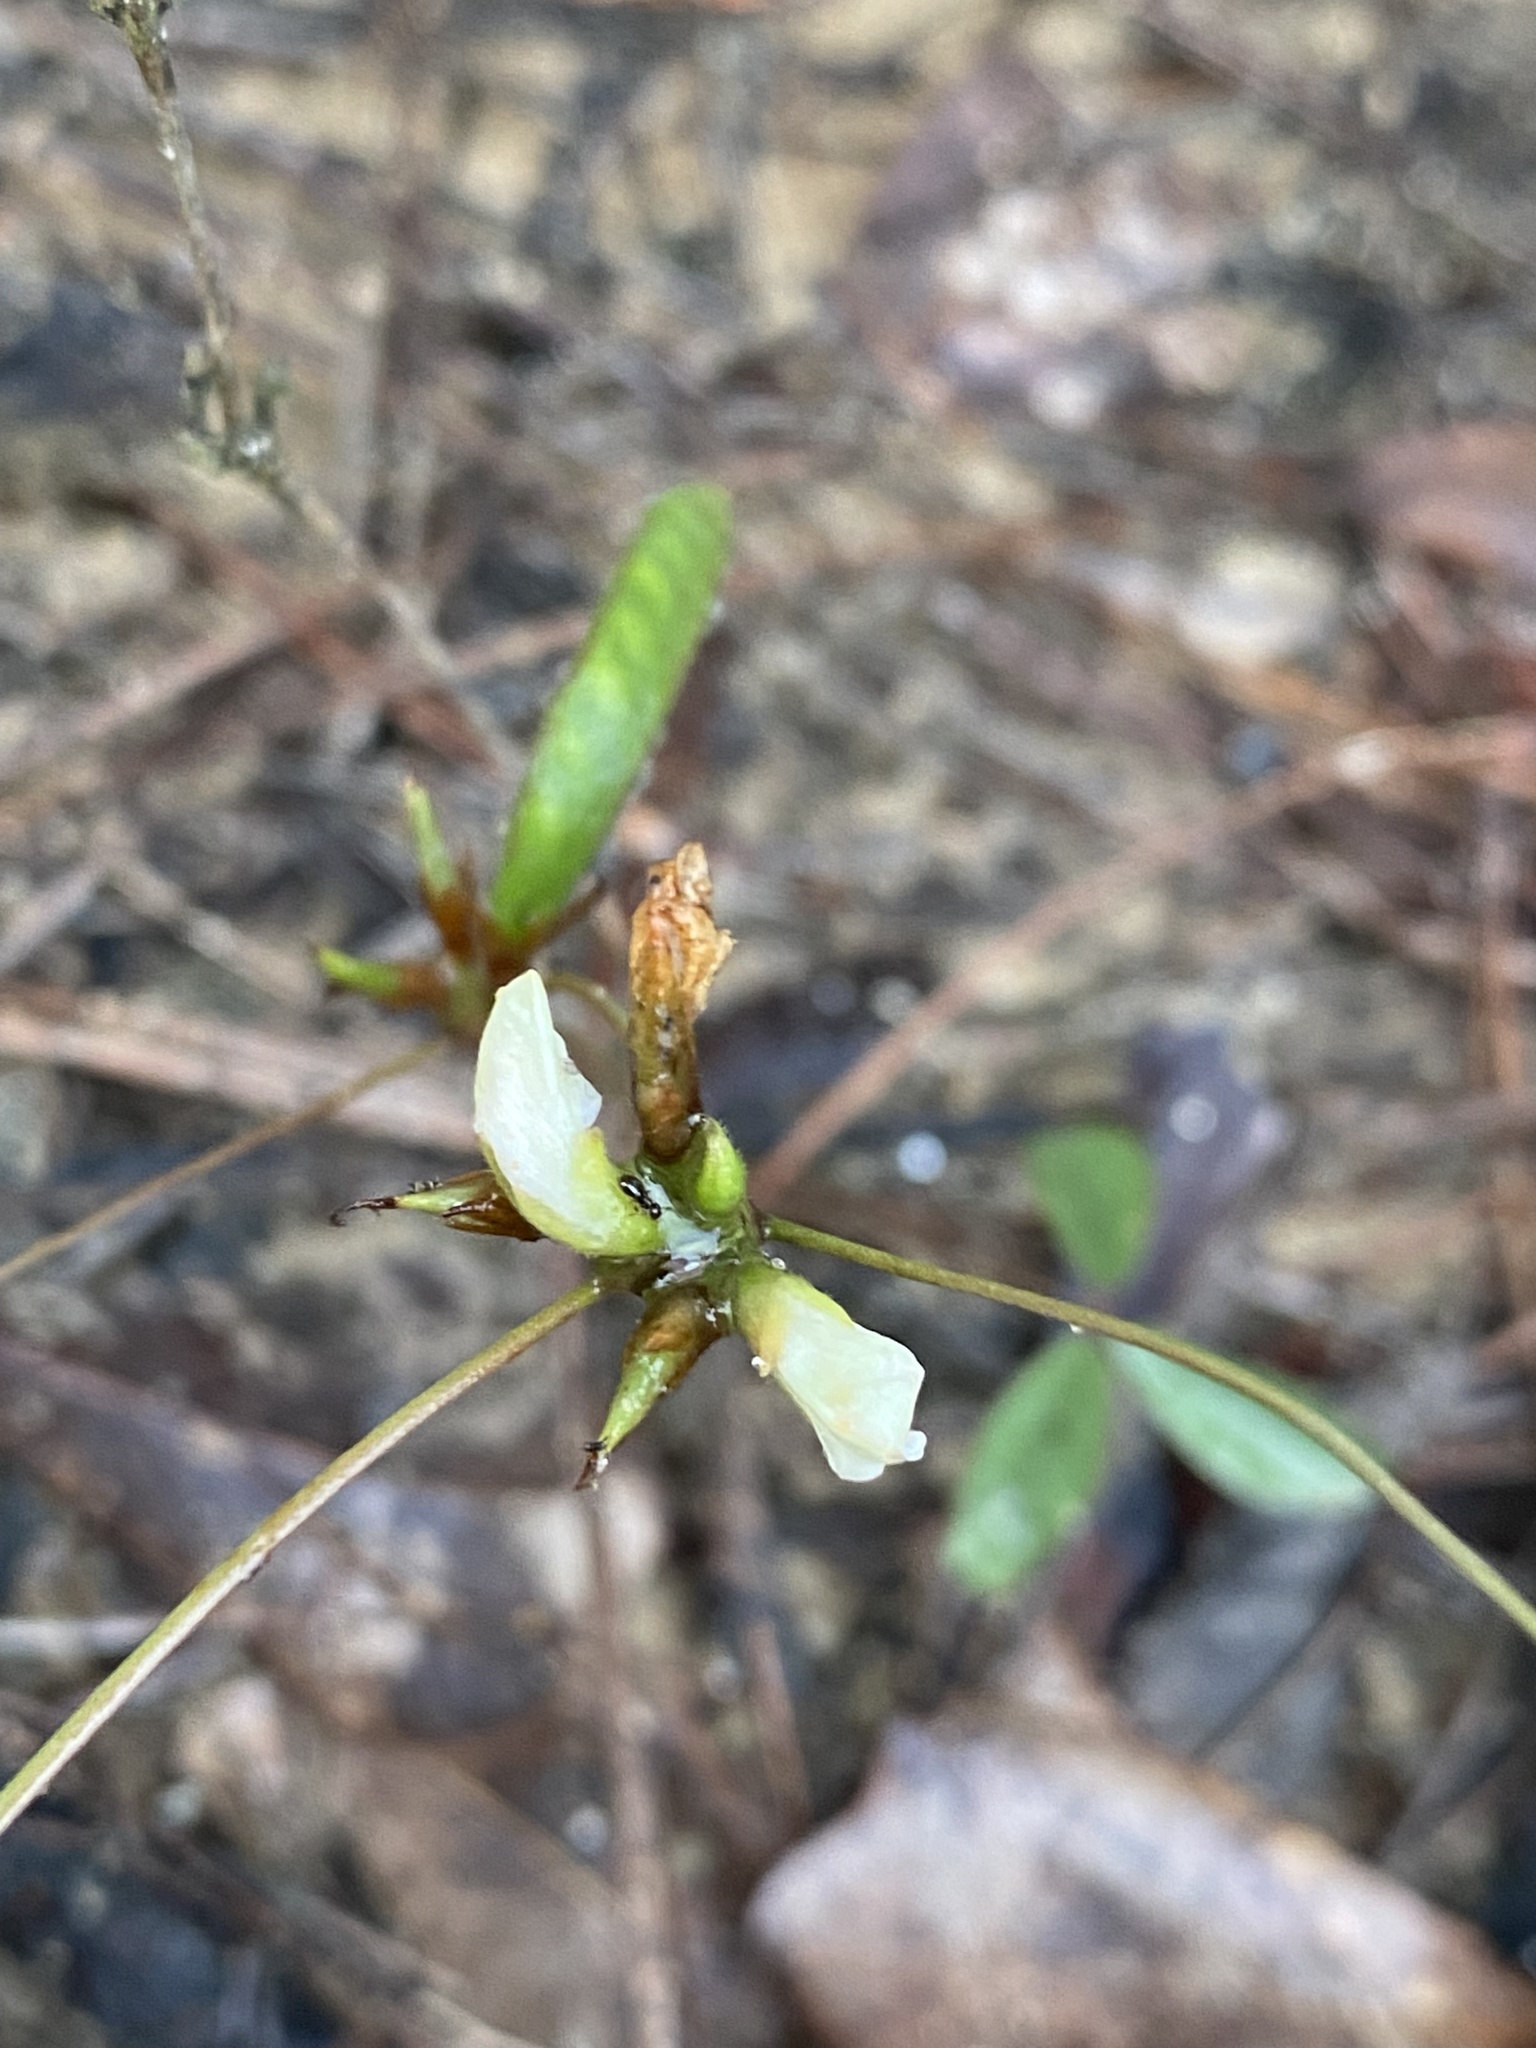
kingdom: Plantae
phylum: Tracheophyta
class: Magnoliopsida
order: Fabales
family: Fabaceae
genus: Galactia
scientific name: Galactia erecta
